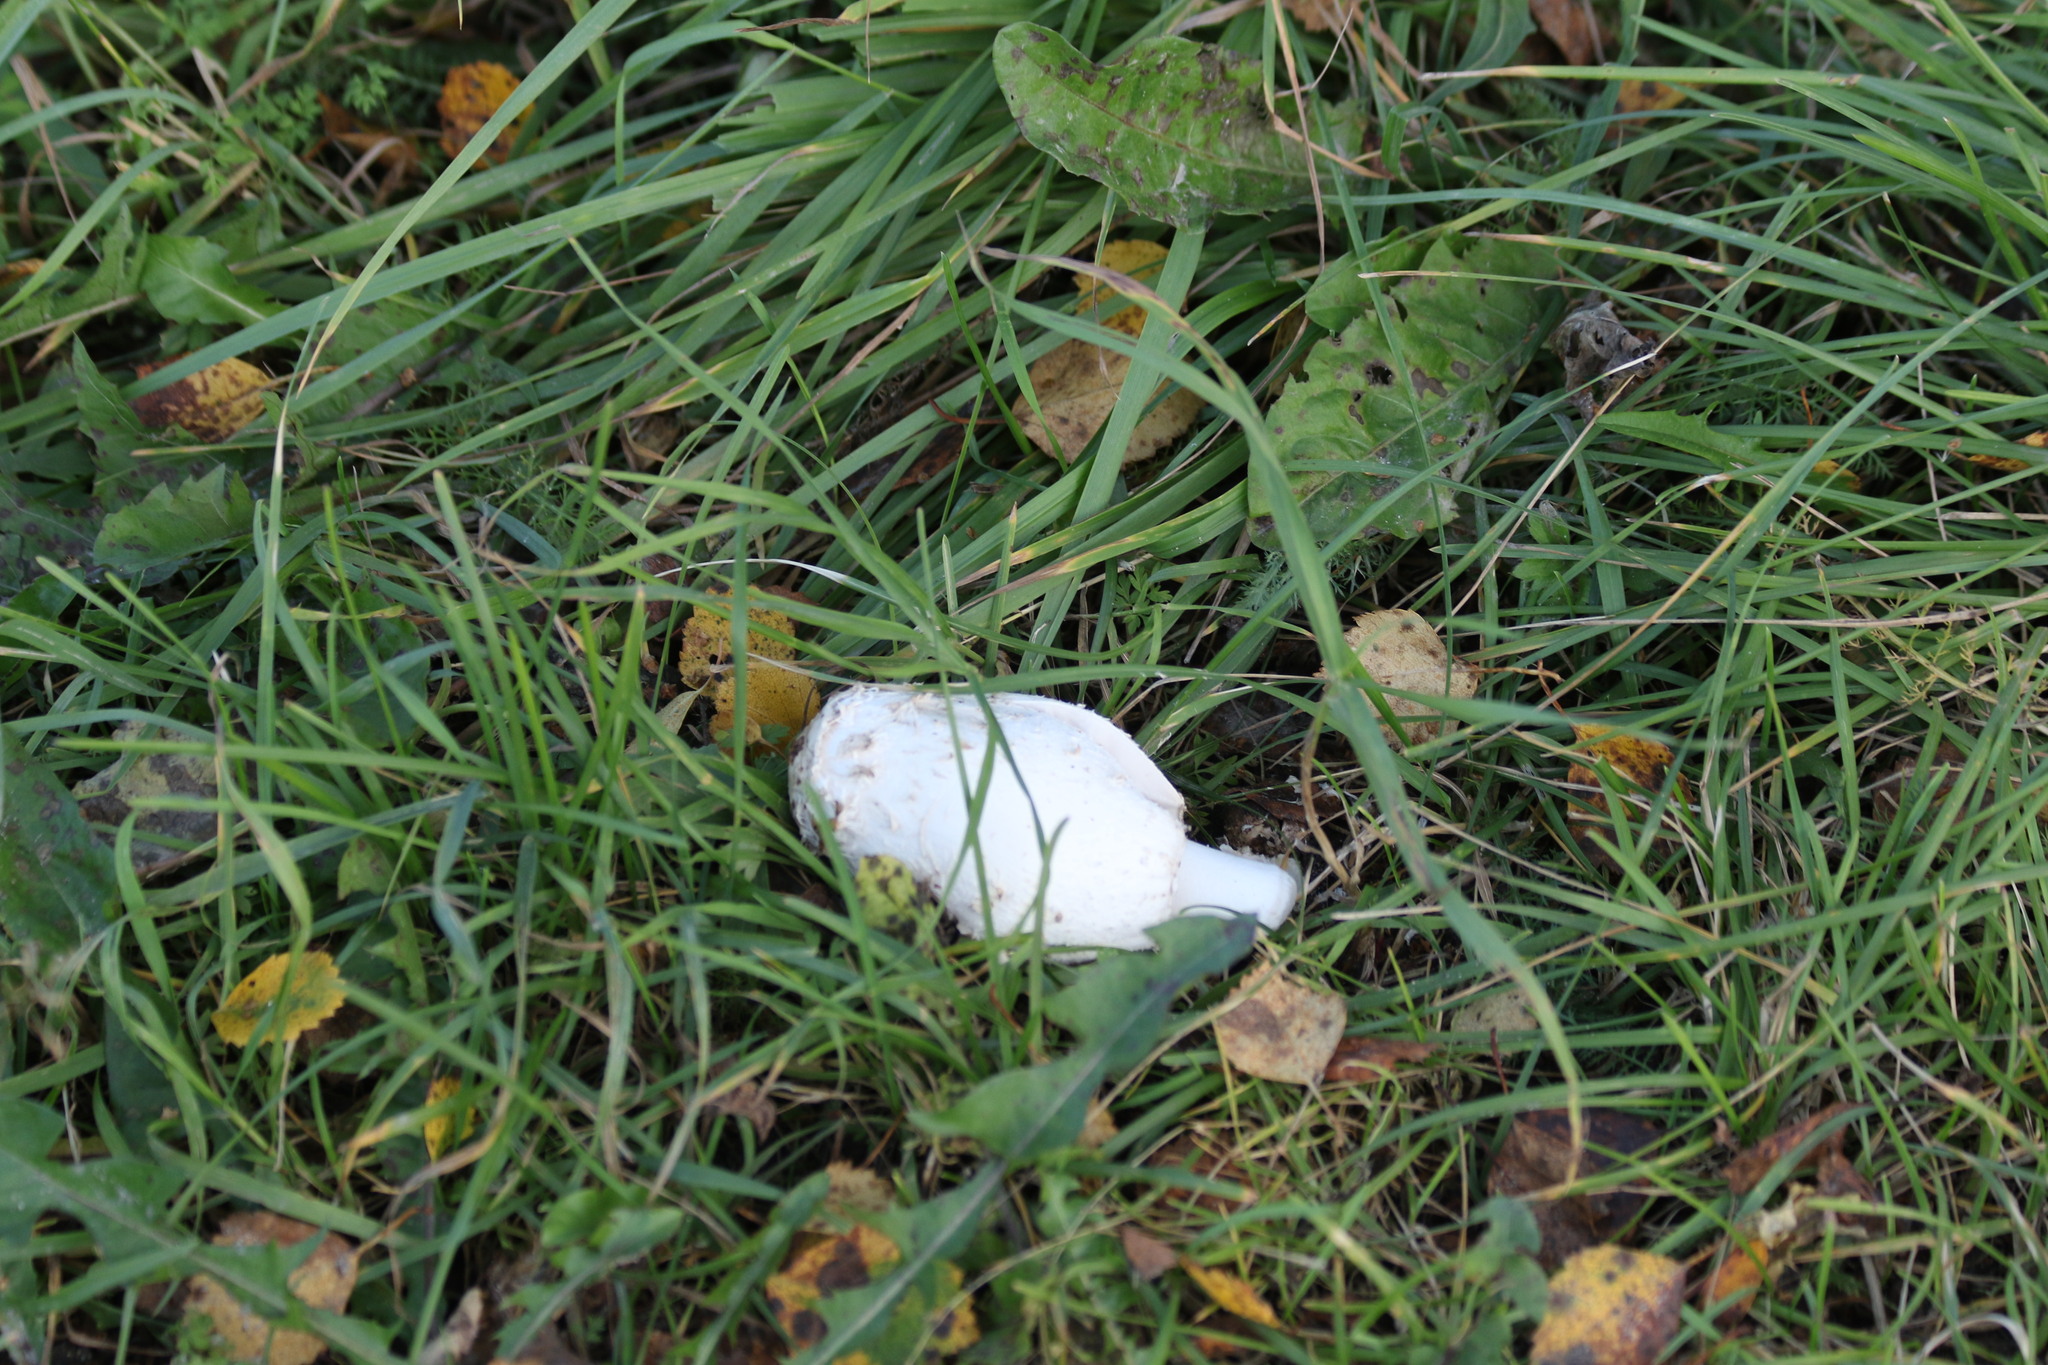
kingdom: Fungi
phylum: Basidiomycota
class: Agaricomycetes
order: Agaricales
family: Agaricaceae
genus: Coprinus
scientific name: Coprinus comatus
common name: Lawyer's wig
